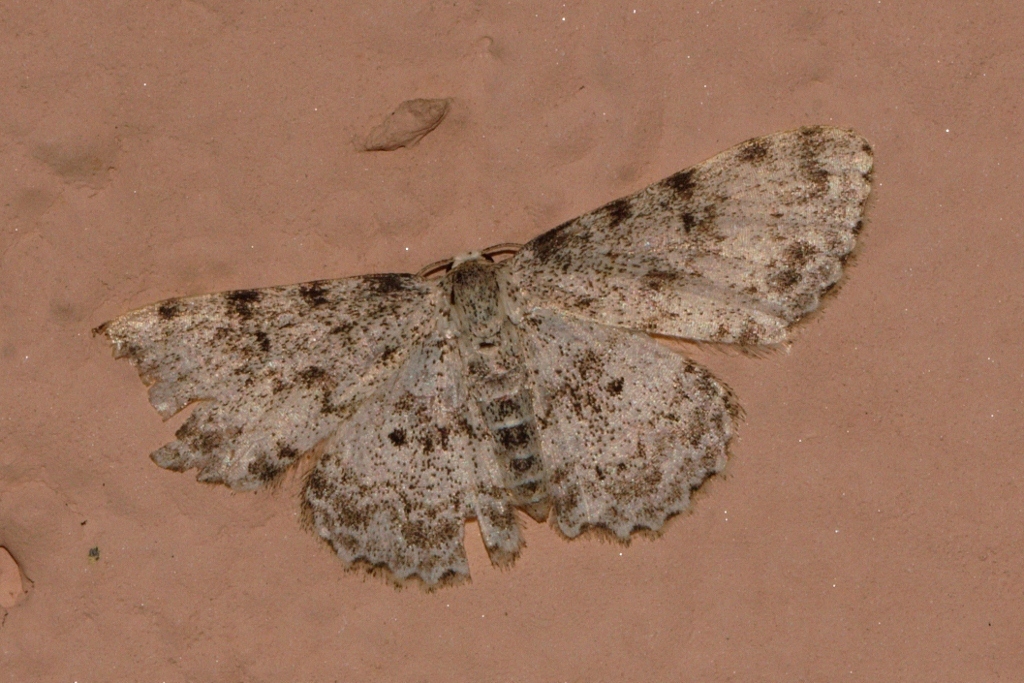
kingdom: Animalia
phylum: Arthropoda
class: Insecta
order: Lepidoptera
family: Geometridae
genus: Scopula
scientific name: Scopula nigrinotata
